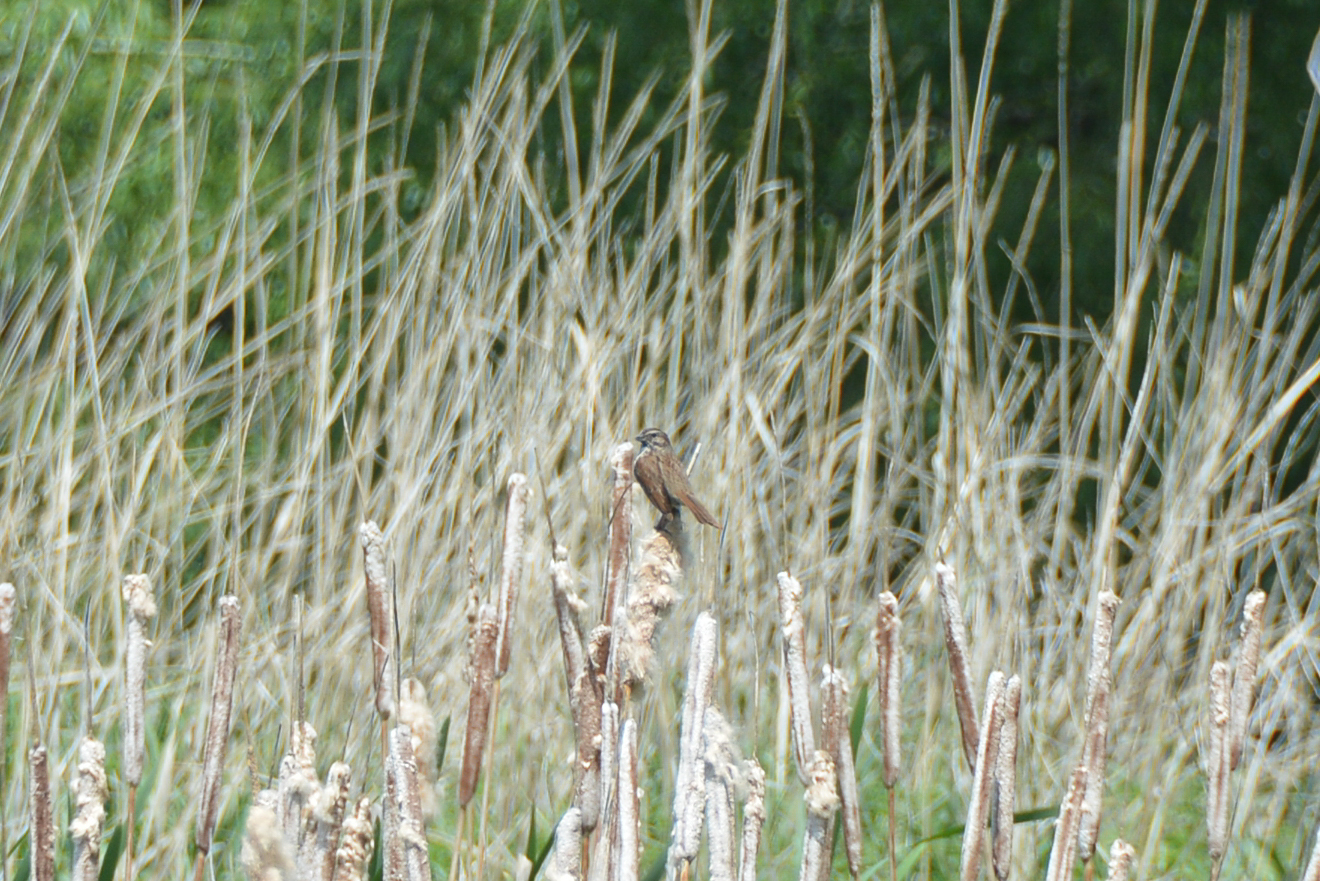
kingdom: Animalia
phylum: Chordata
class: Aves
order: Passeriformes
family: Passerellidae
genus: Melospiza
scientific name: Melospiza melodia
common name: Song sparrow
